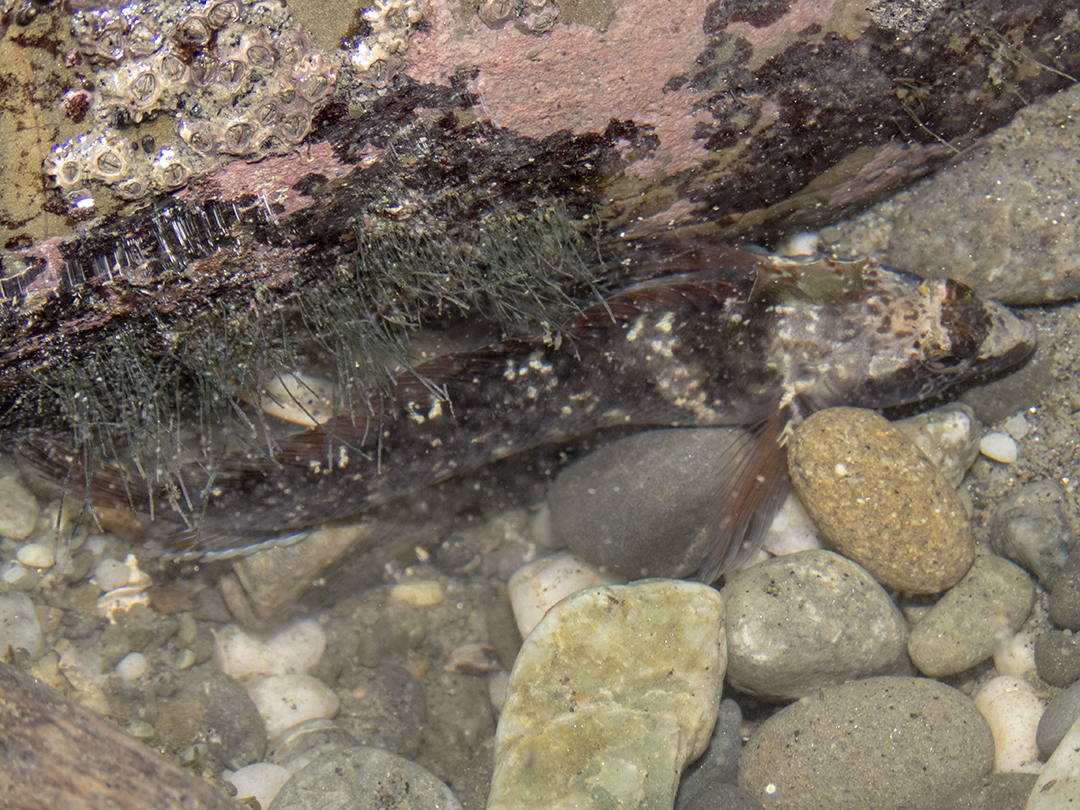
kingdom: Animalia
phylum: Chordata
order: Perciformes
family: Tripterygiidae
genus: Ruanoho
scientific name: Ruanoho decemdigitatus
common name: Longfinned triplefin
